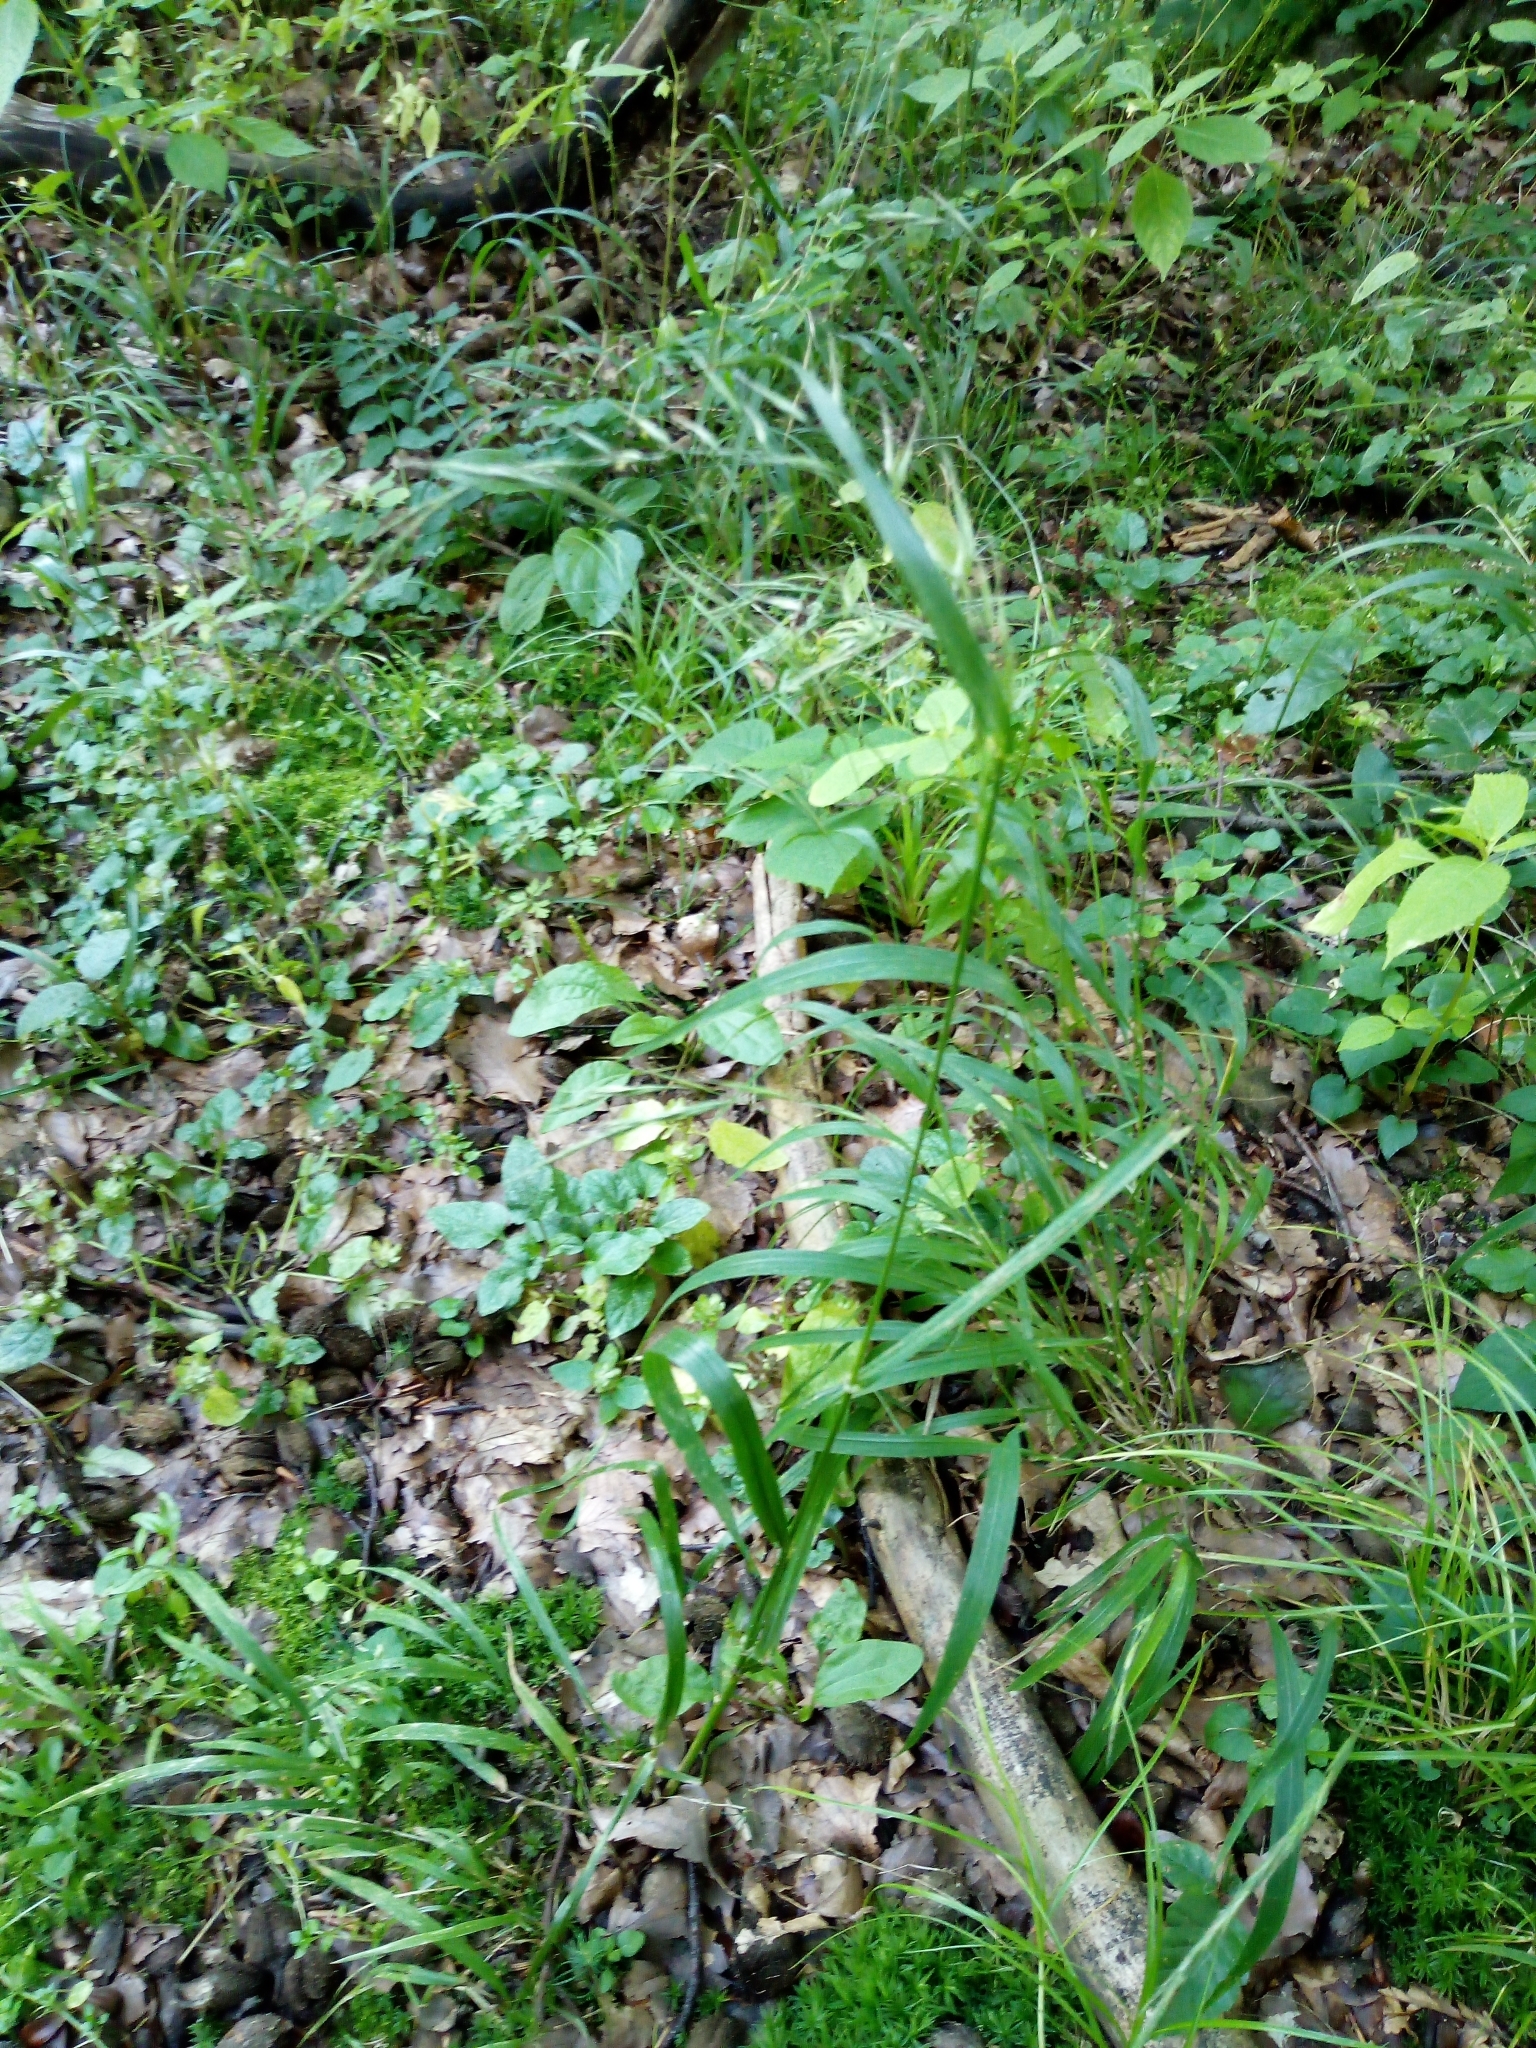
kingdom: Plantae
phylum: Tracheophyta
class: Liliopsida
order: Poales
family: Poaceae
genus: Lolium
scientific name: Lolium giganteum
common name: Giant fescue
